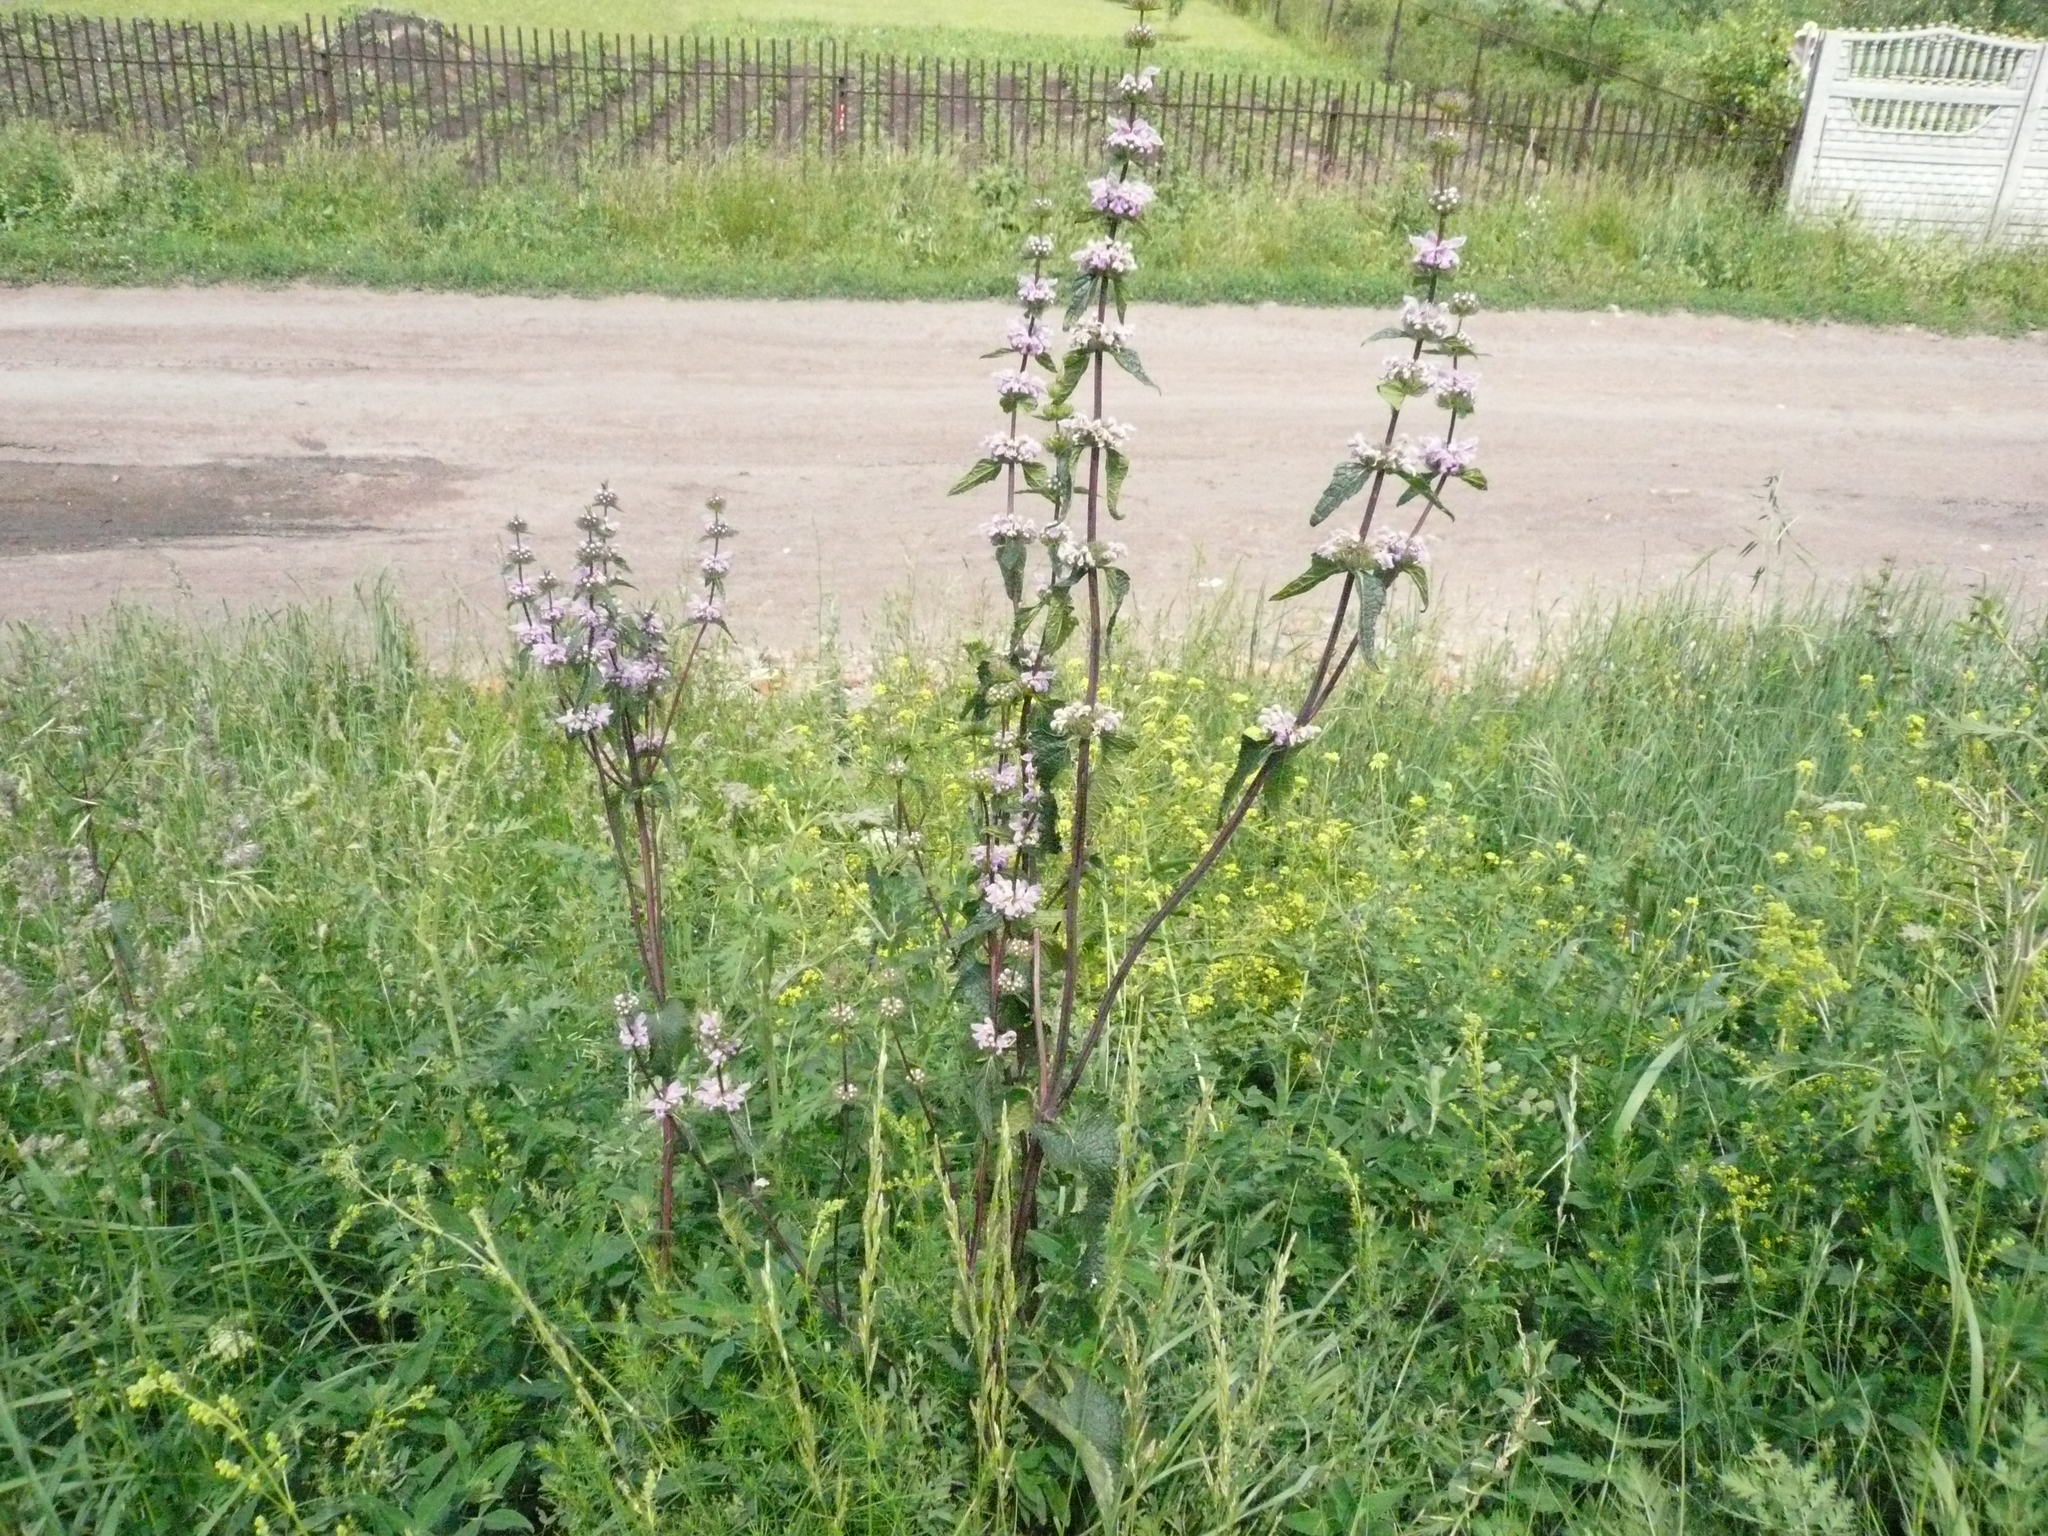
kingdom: Plantae
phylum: Tracheophyta
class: Magnoliopsida
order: Lamiales
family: Lamiaceae
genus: Phlomoides
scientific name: Phlomoides tuberosa
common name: Tuberous jerusalem sage
